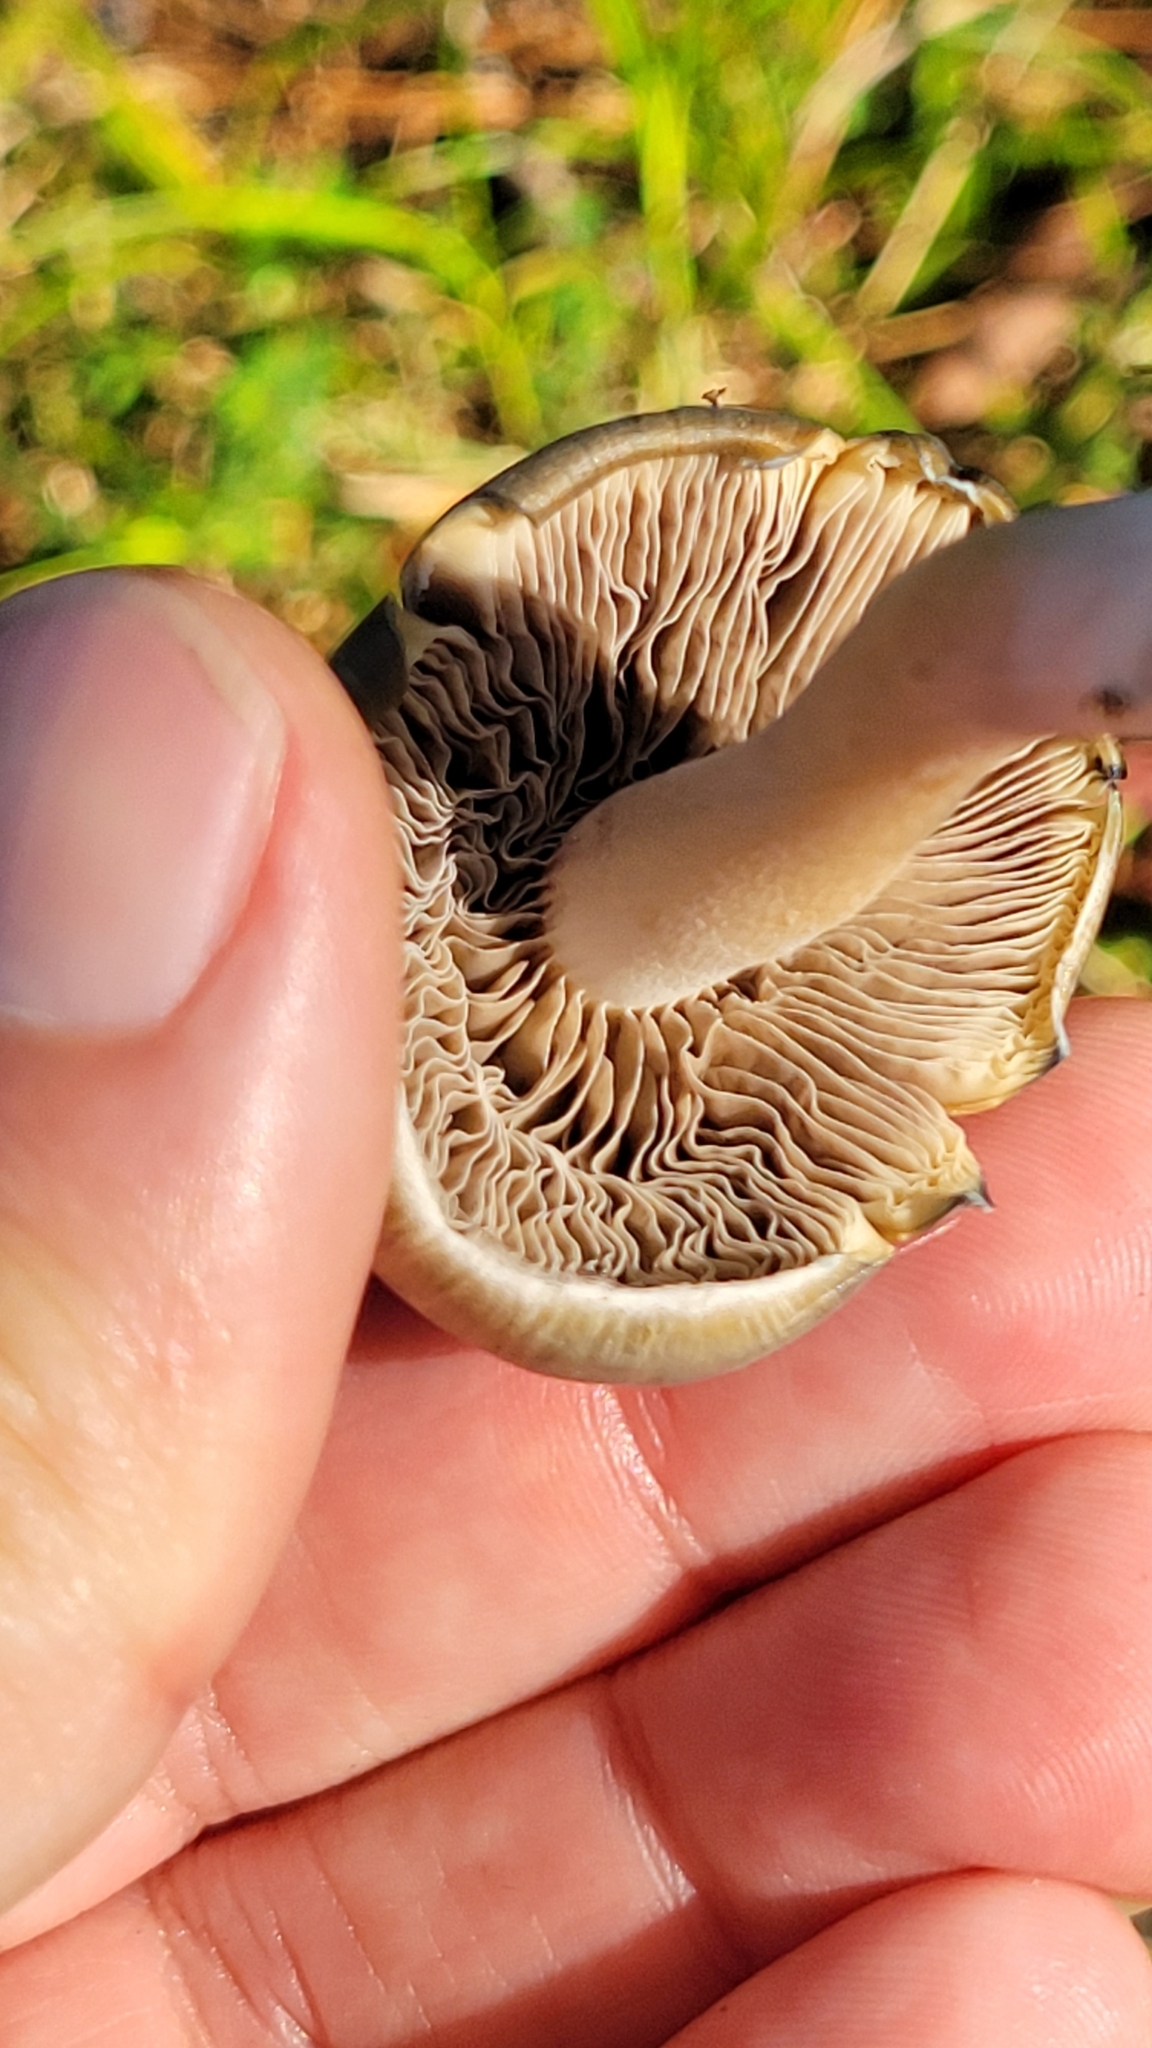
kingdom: Fungi
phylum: Basidiomycota
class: Agaricomycetes
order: Agaricales
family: Hymenogastraceae
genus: Psilocybe
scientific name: Psilocybe caerulescens
